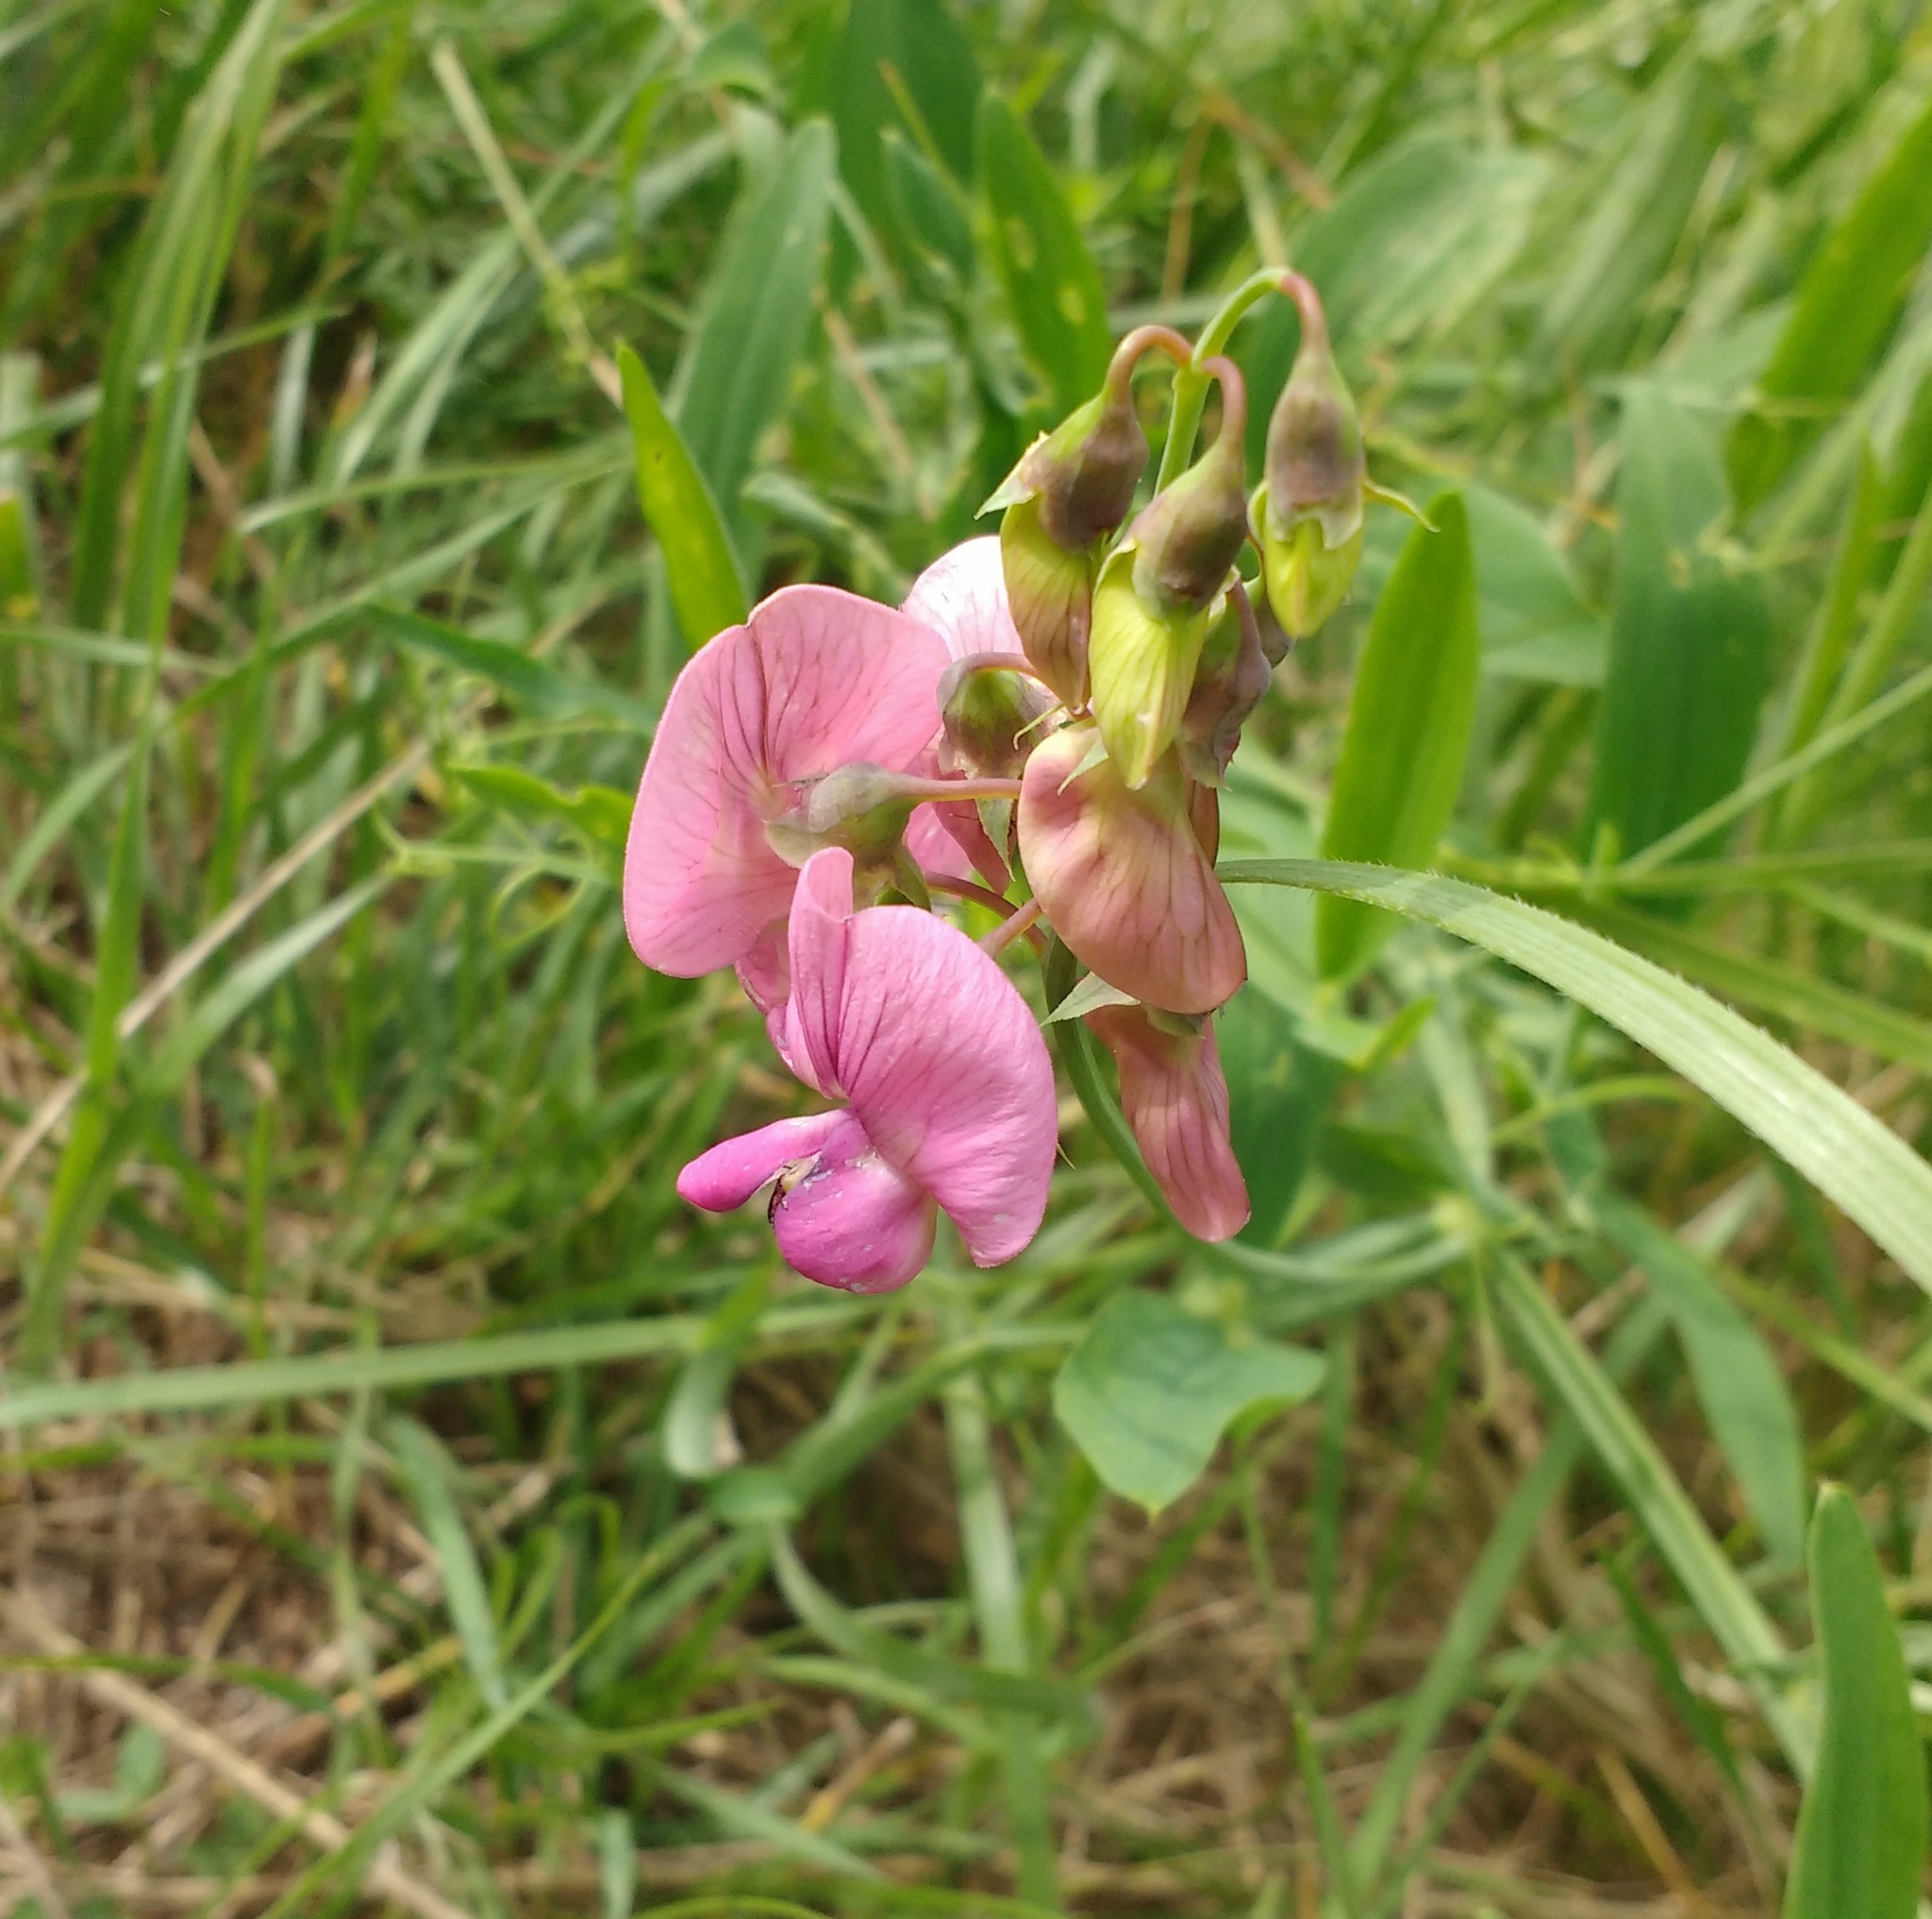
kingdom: Plantae
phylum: Tracheophyta
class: Magnoliopsida
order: Fabales
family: Fabaceae
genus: Lathyrus
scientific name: Lathyrus sylvestris
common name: Flat pea
